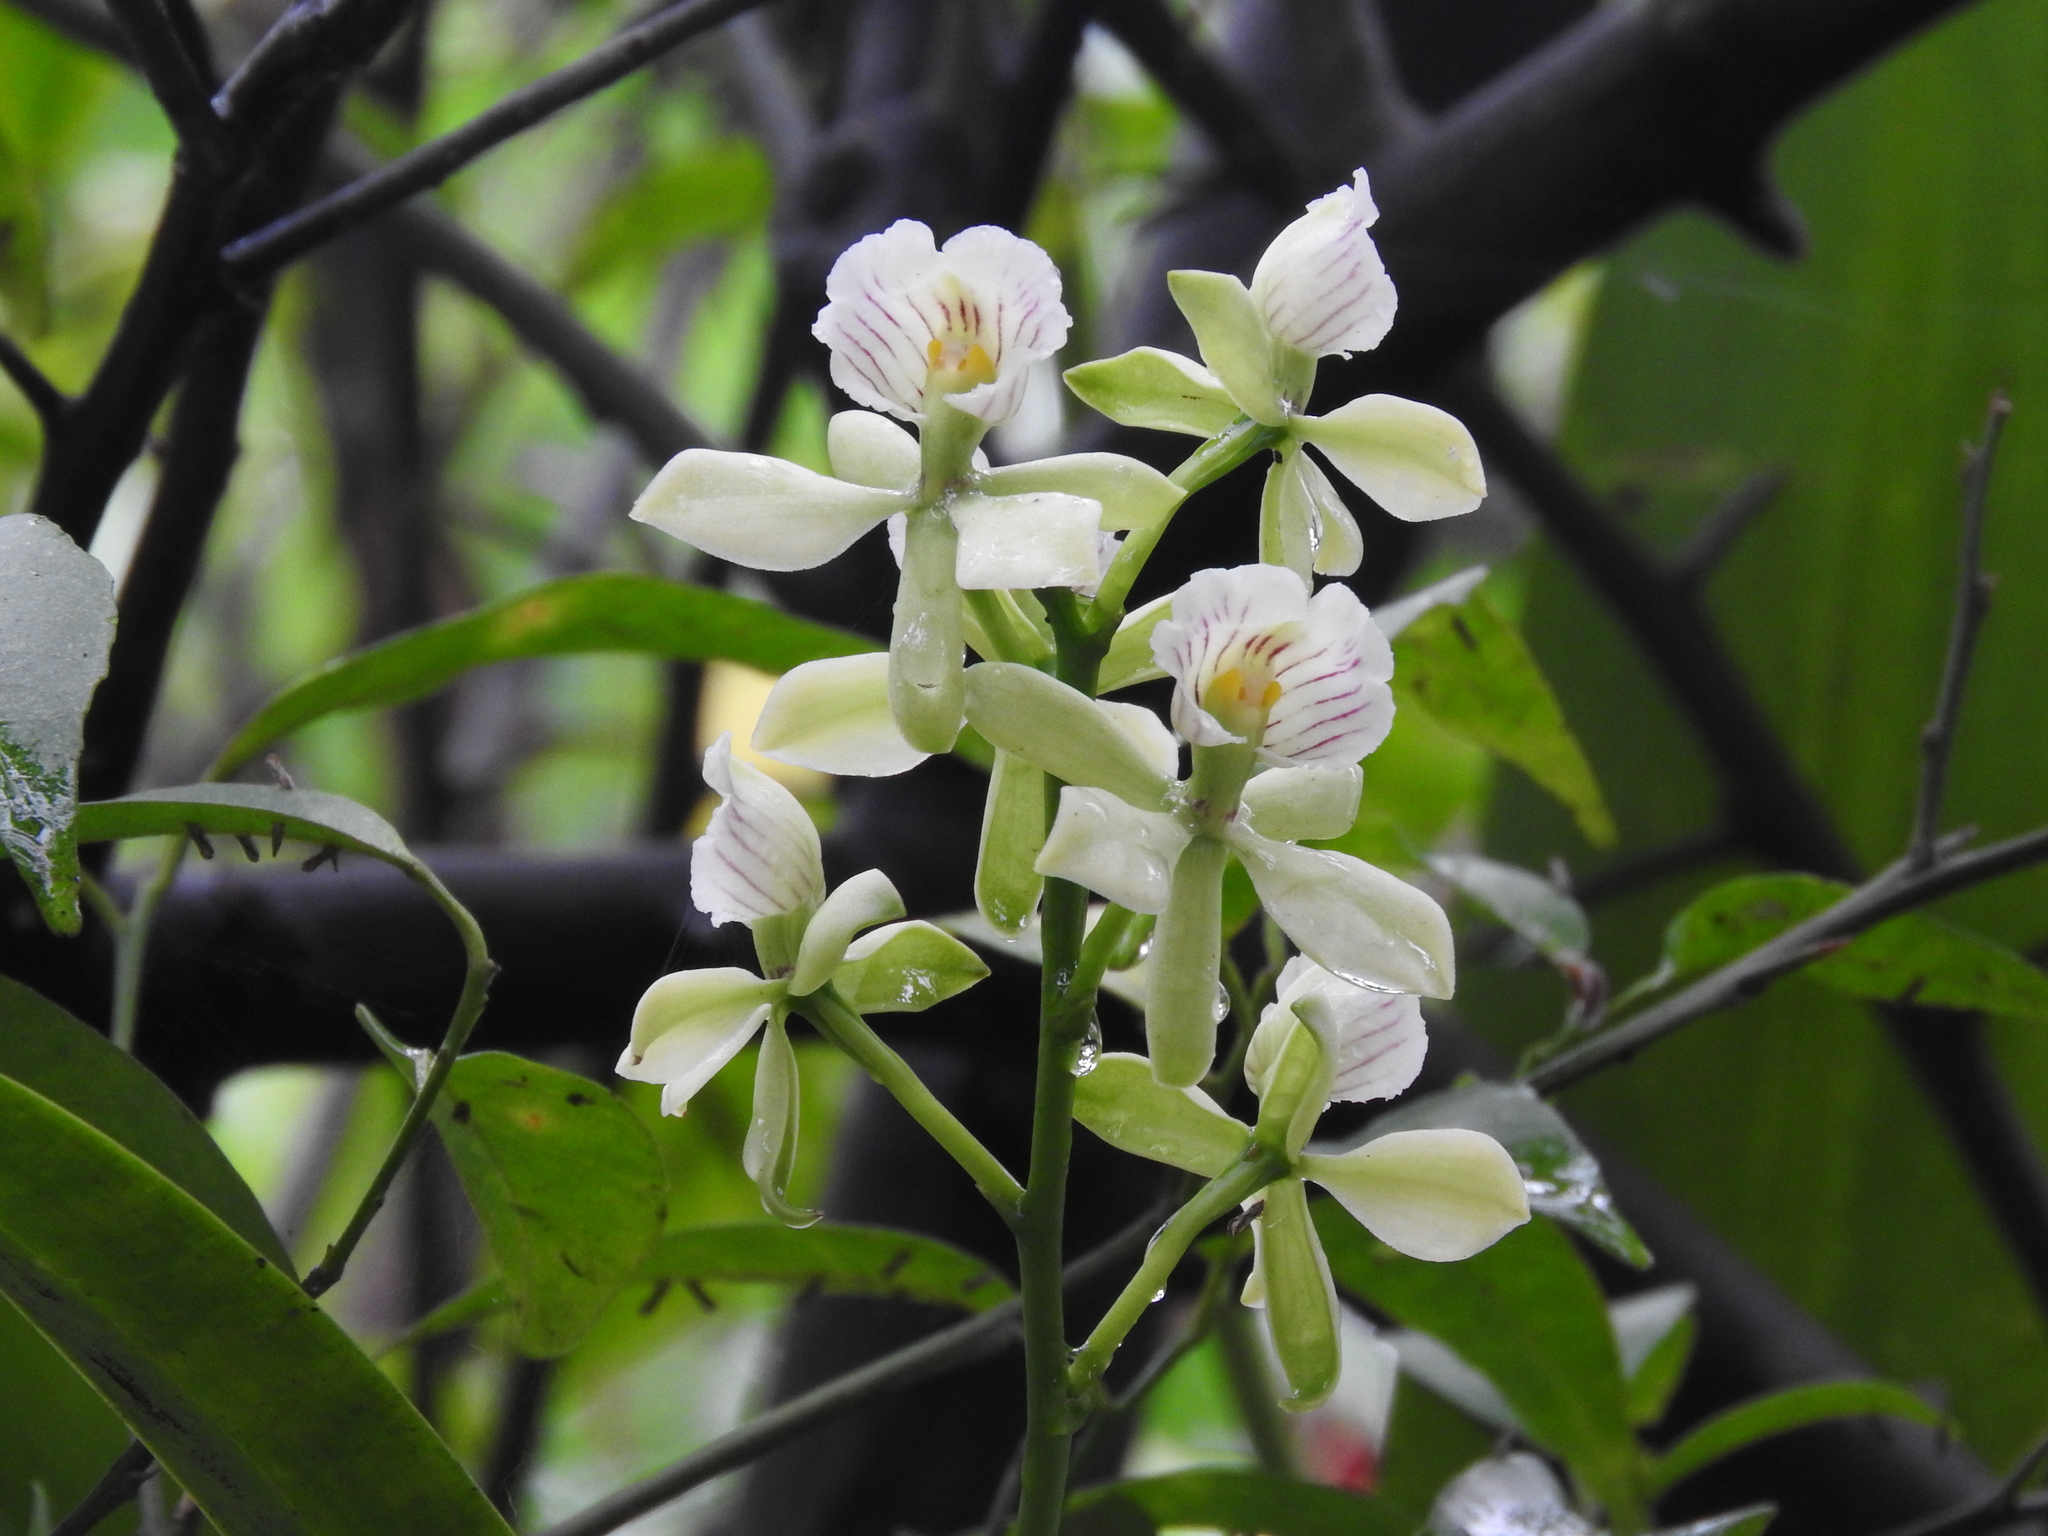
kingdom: Plantae
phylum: Tracheophyta
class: Liliopsida
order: Asparagales
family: Orchidaceae
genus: Prosthechea
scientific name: Prosthechea radiata
